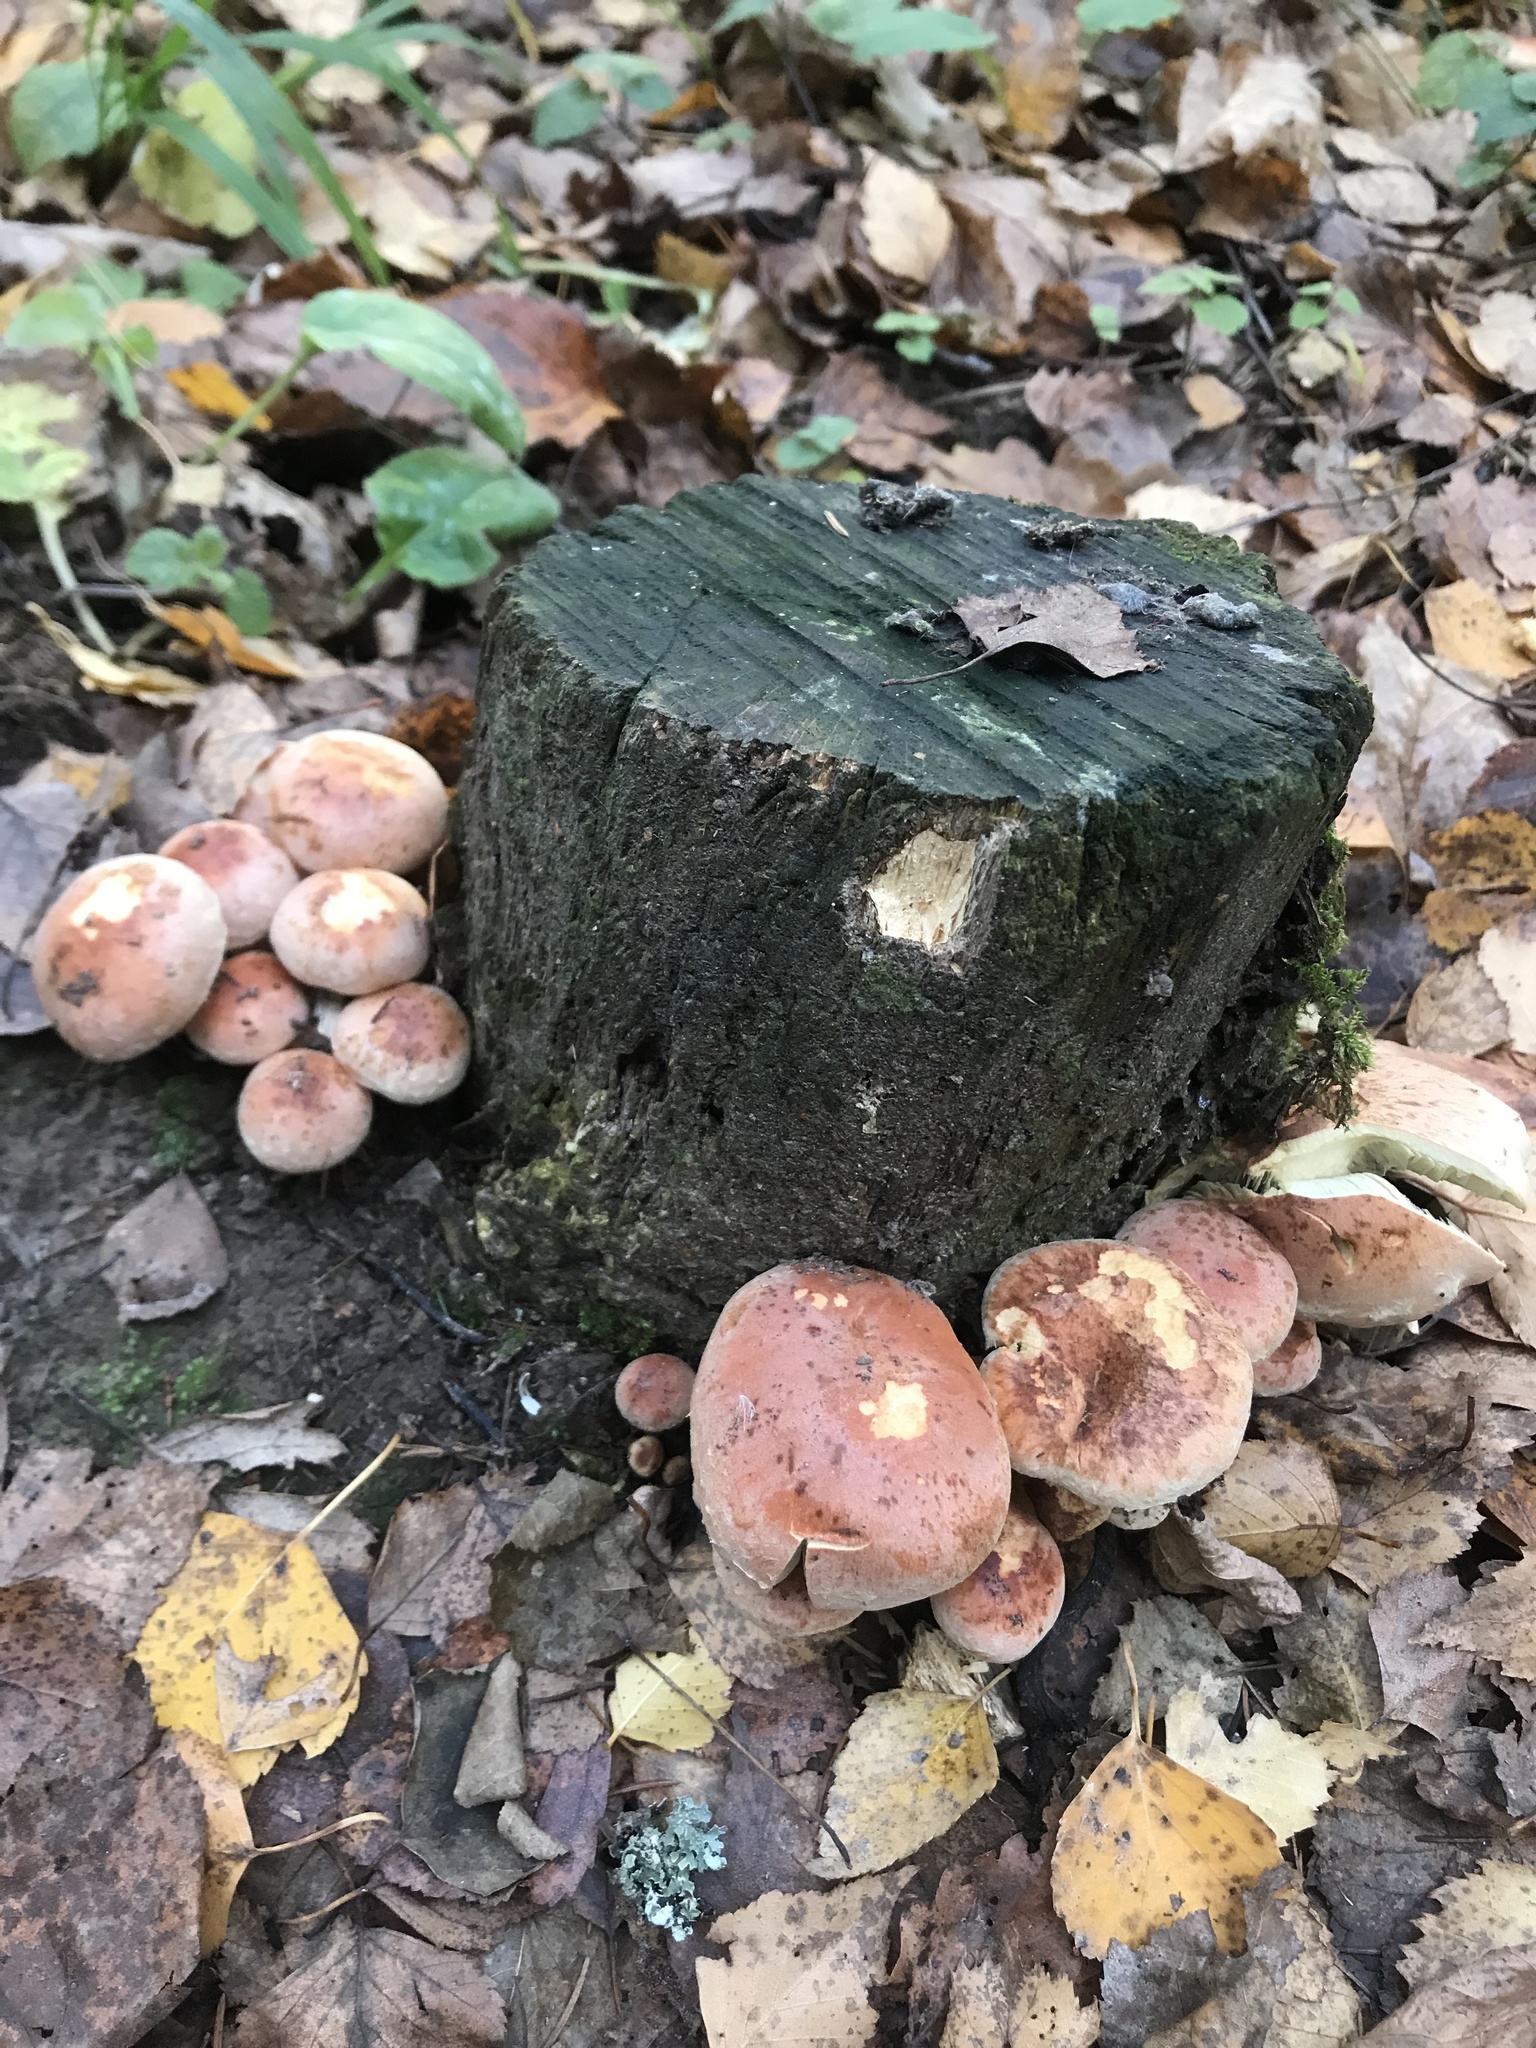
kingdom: Fungi
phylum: Basidiomycota
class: Agaricomycetes
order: Agaricales
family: Strophariaceae
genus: Hypholoma
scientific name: Hypholoma lateritium
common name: Brick caps
